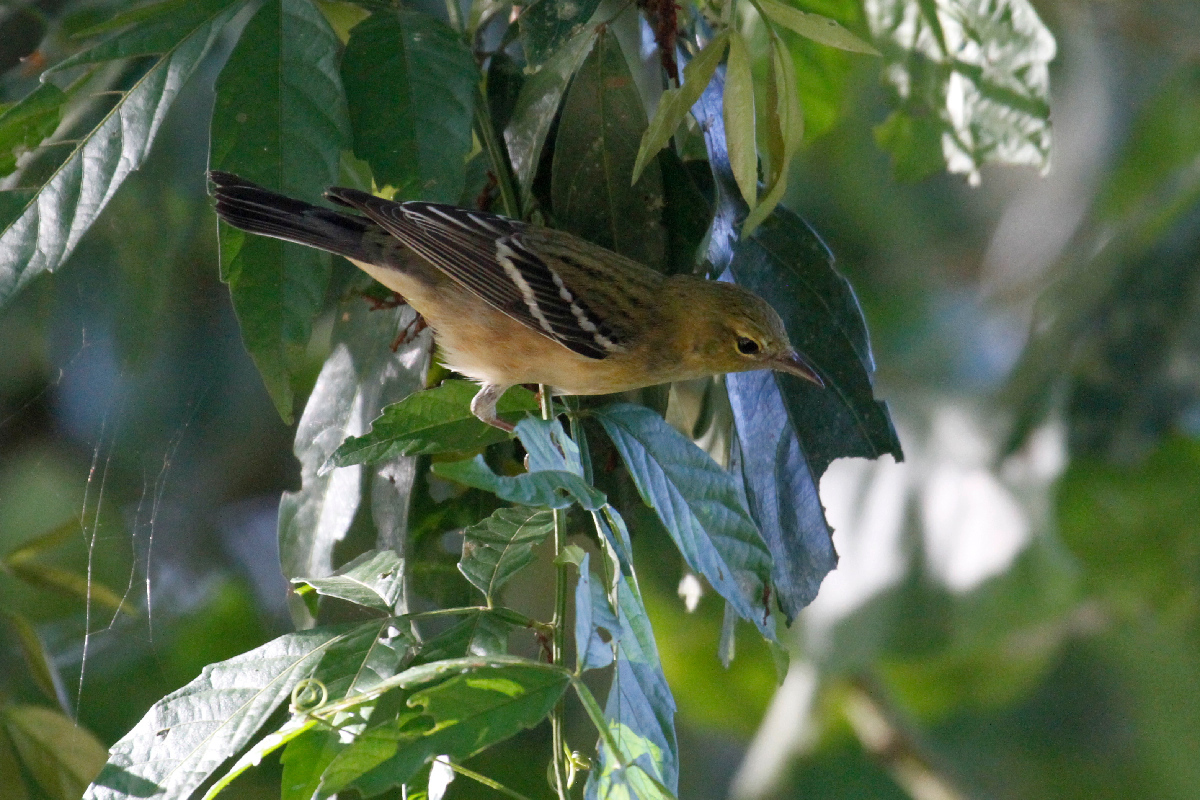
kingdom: Animalia
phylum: Chordata
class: Aves
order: Passeriformes
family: Parulidae
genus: Setophaga
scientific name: Setophaga castanea
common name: Bay-breasted warbler
